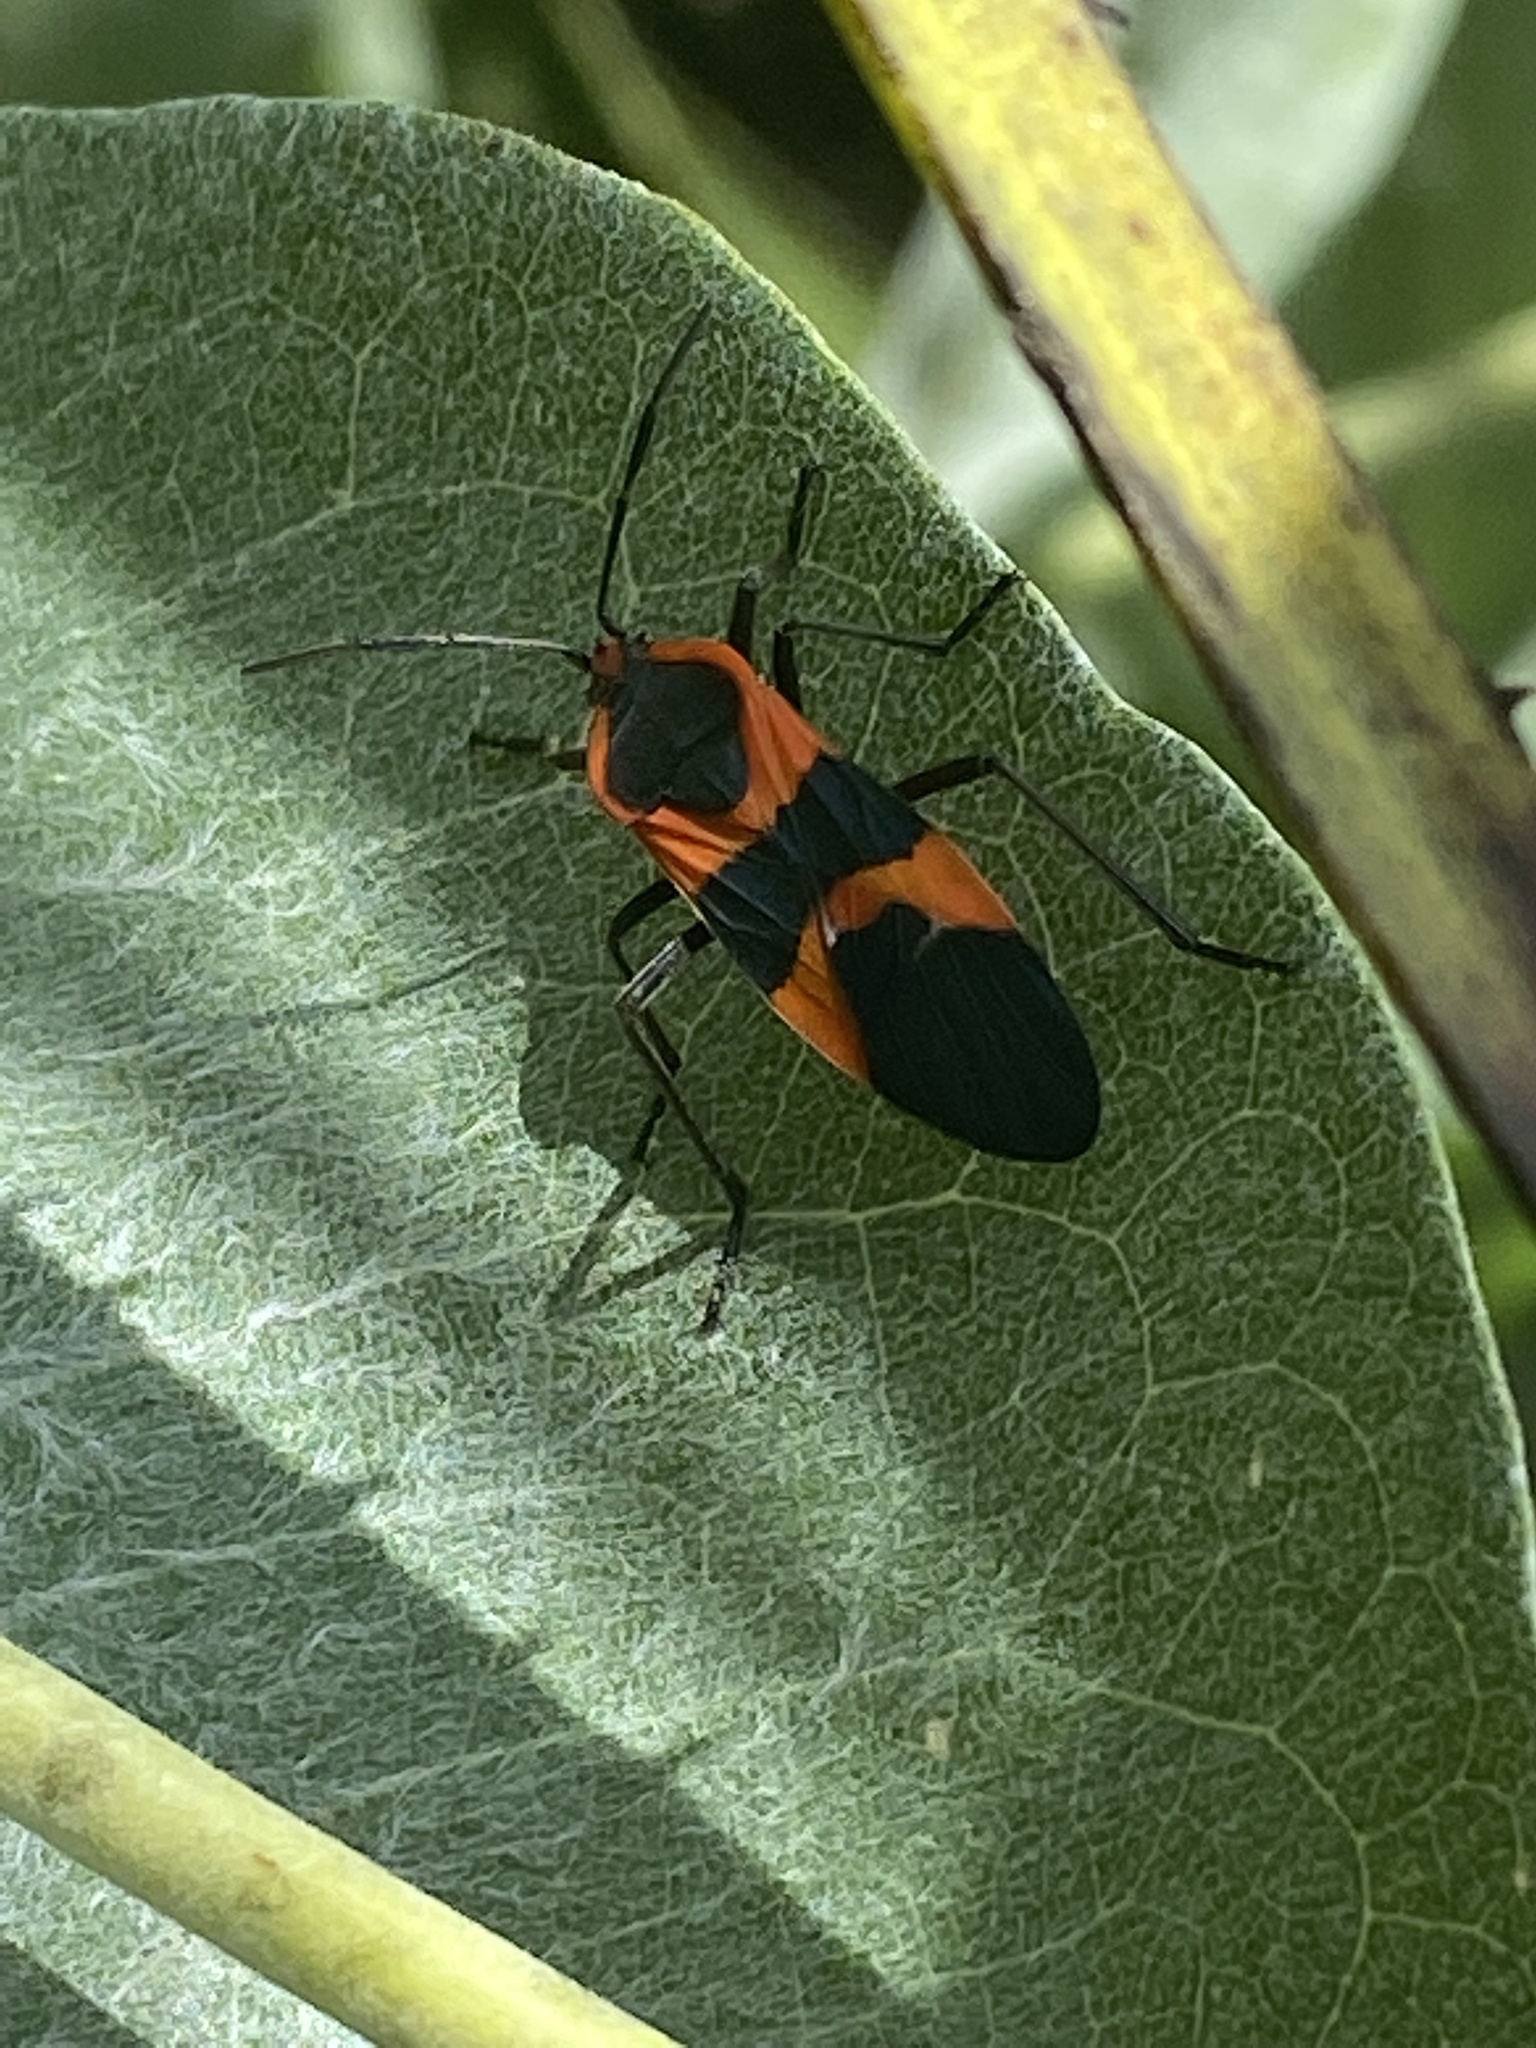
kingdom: Animalia
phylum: Arthropoda
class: Insecta
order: Hemiptera
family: Lygaeidae
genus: Oncopeltus
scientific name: Oncopeltus fasciatus
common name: Large milkweed bug
